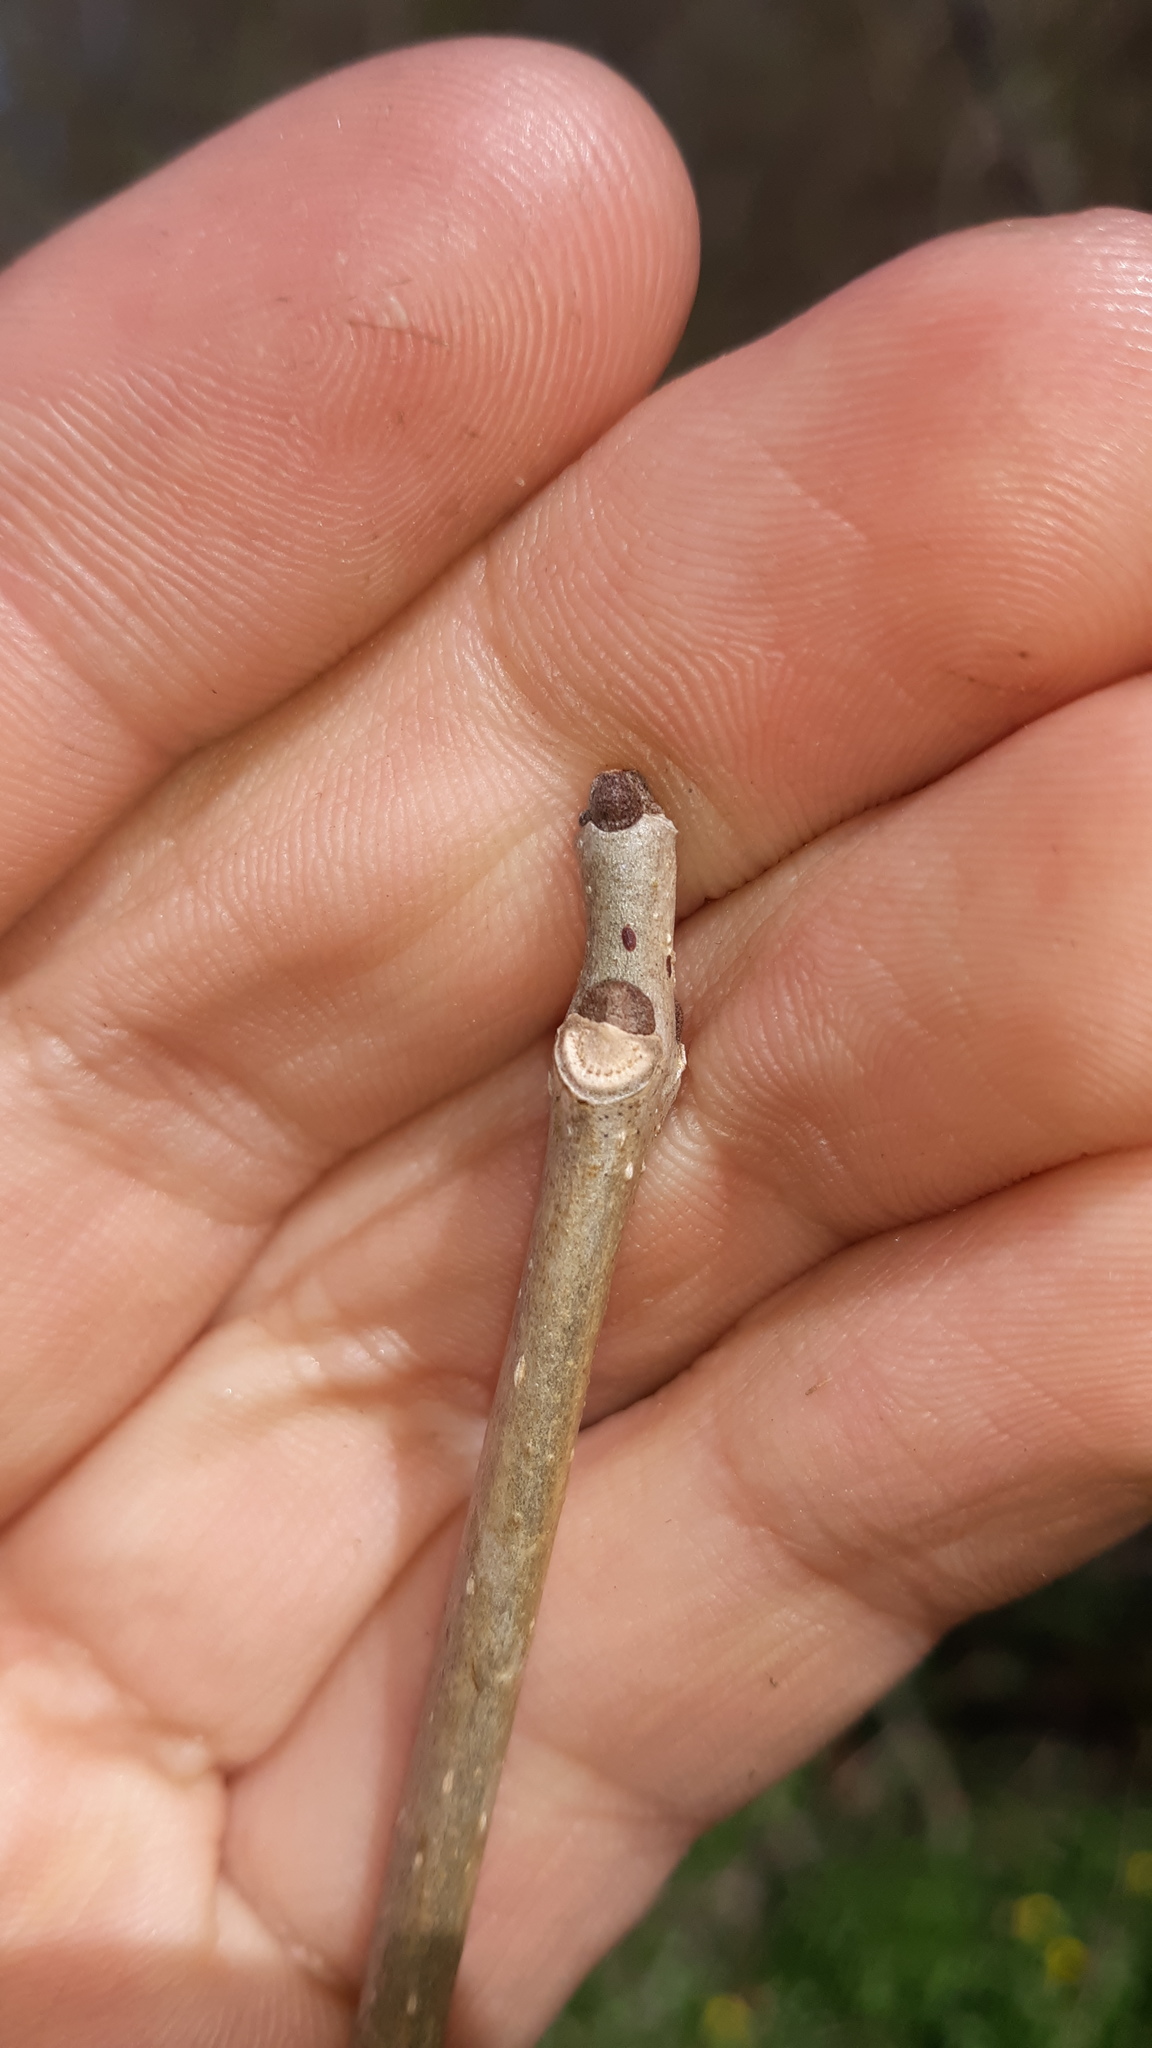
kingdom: Plantae
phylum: Tracheophyta
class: Magnoliopsida
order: Lamiales
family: Oleaceae
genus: Fraxinus
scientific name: Fraxinus pennsylvanica
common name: Green ash
